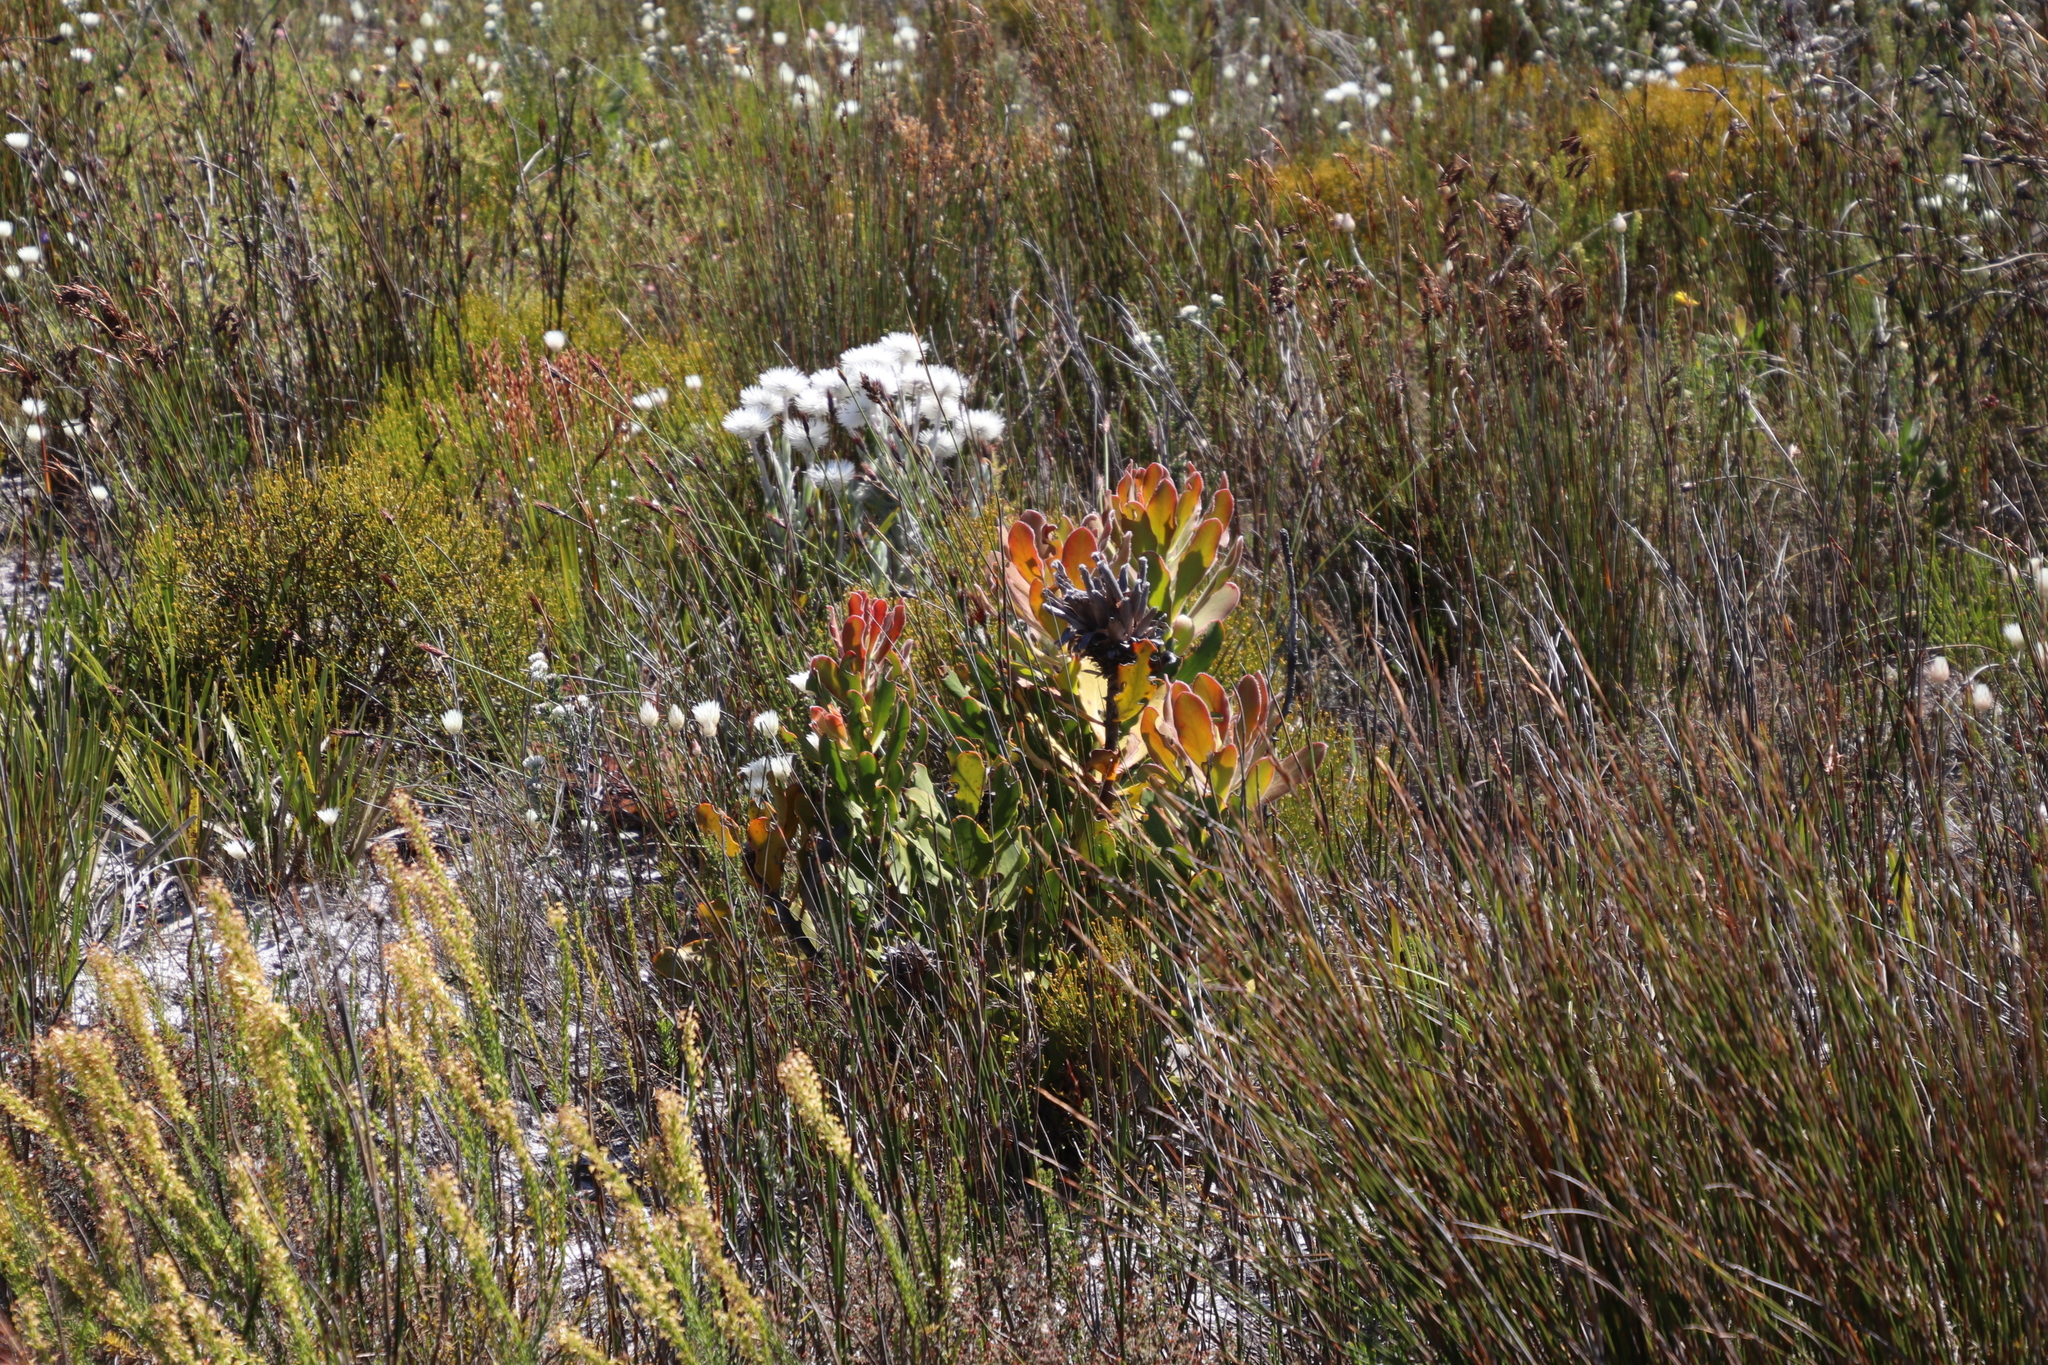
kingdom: Plantae
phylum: Tracheophyta
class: Magnoliopsida
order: Proteales
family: Proteaceae
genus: Protea
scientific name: Protea speciosa
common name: Brown-beard sugarbush
